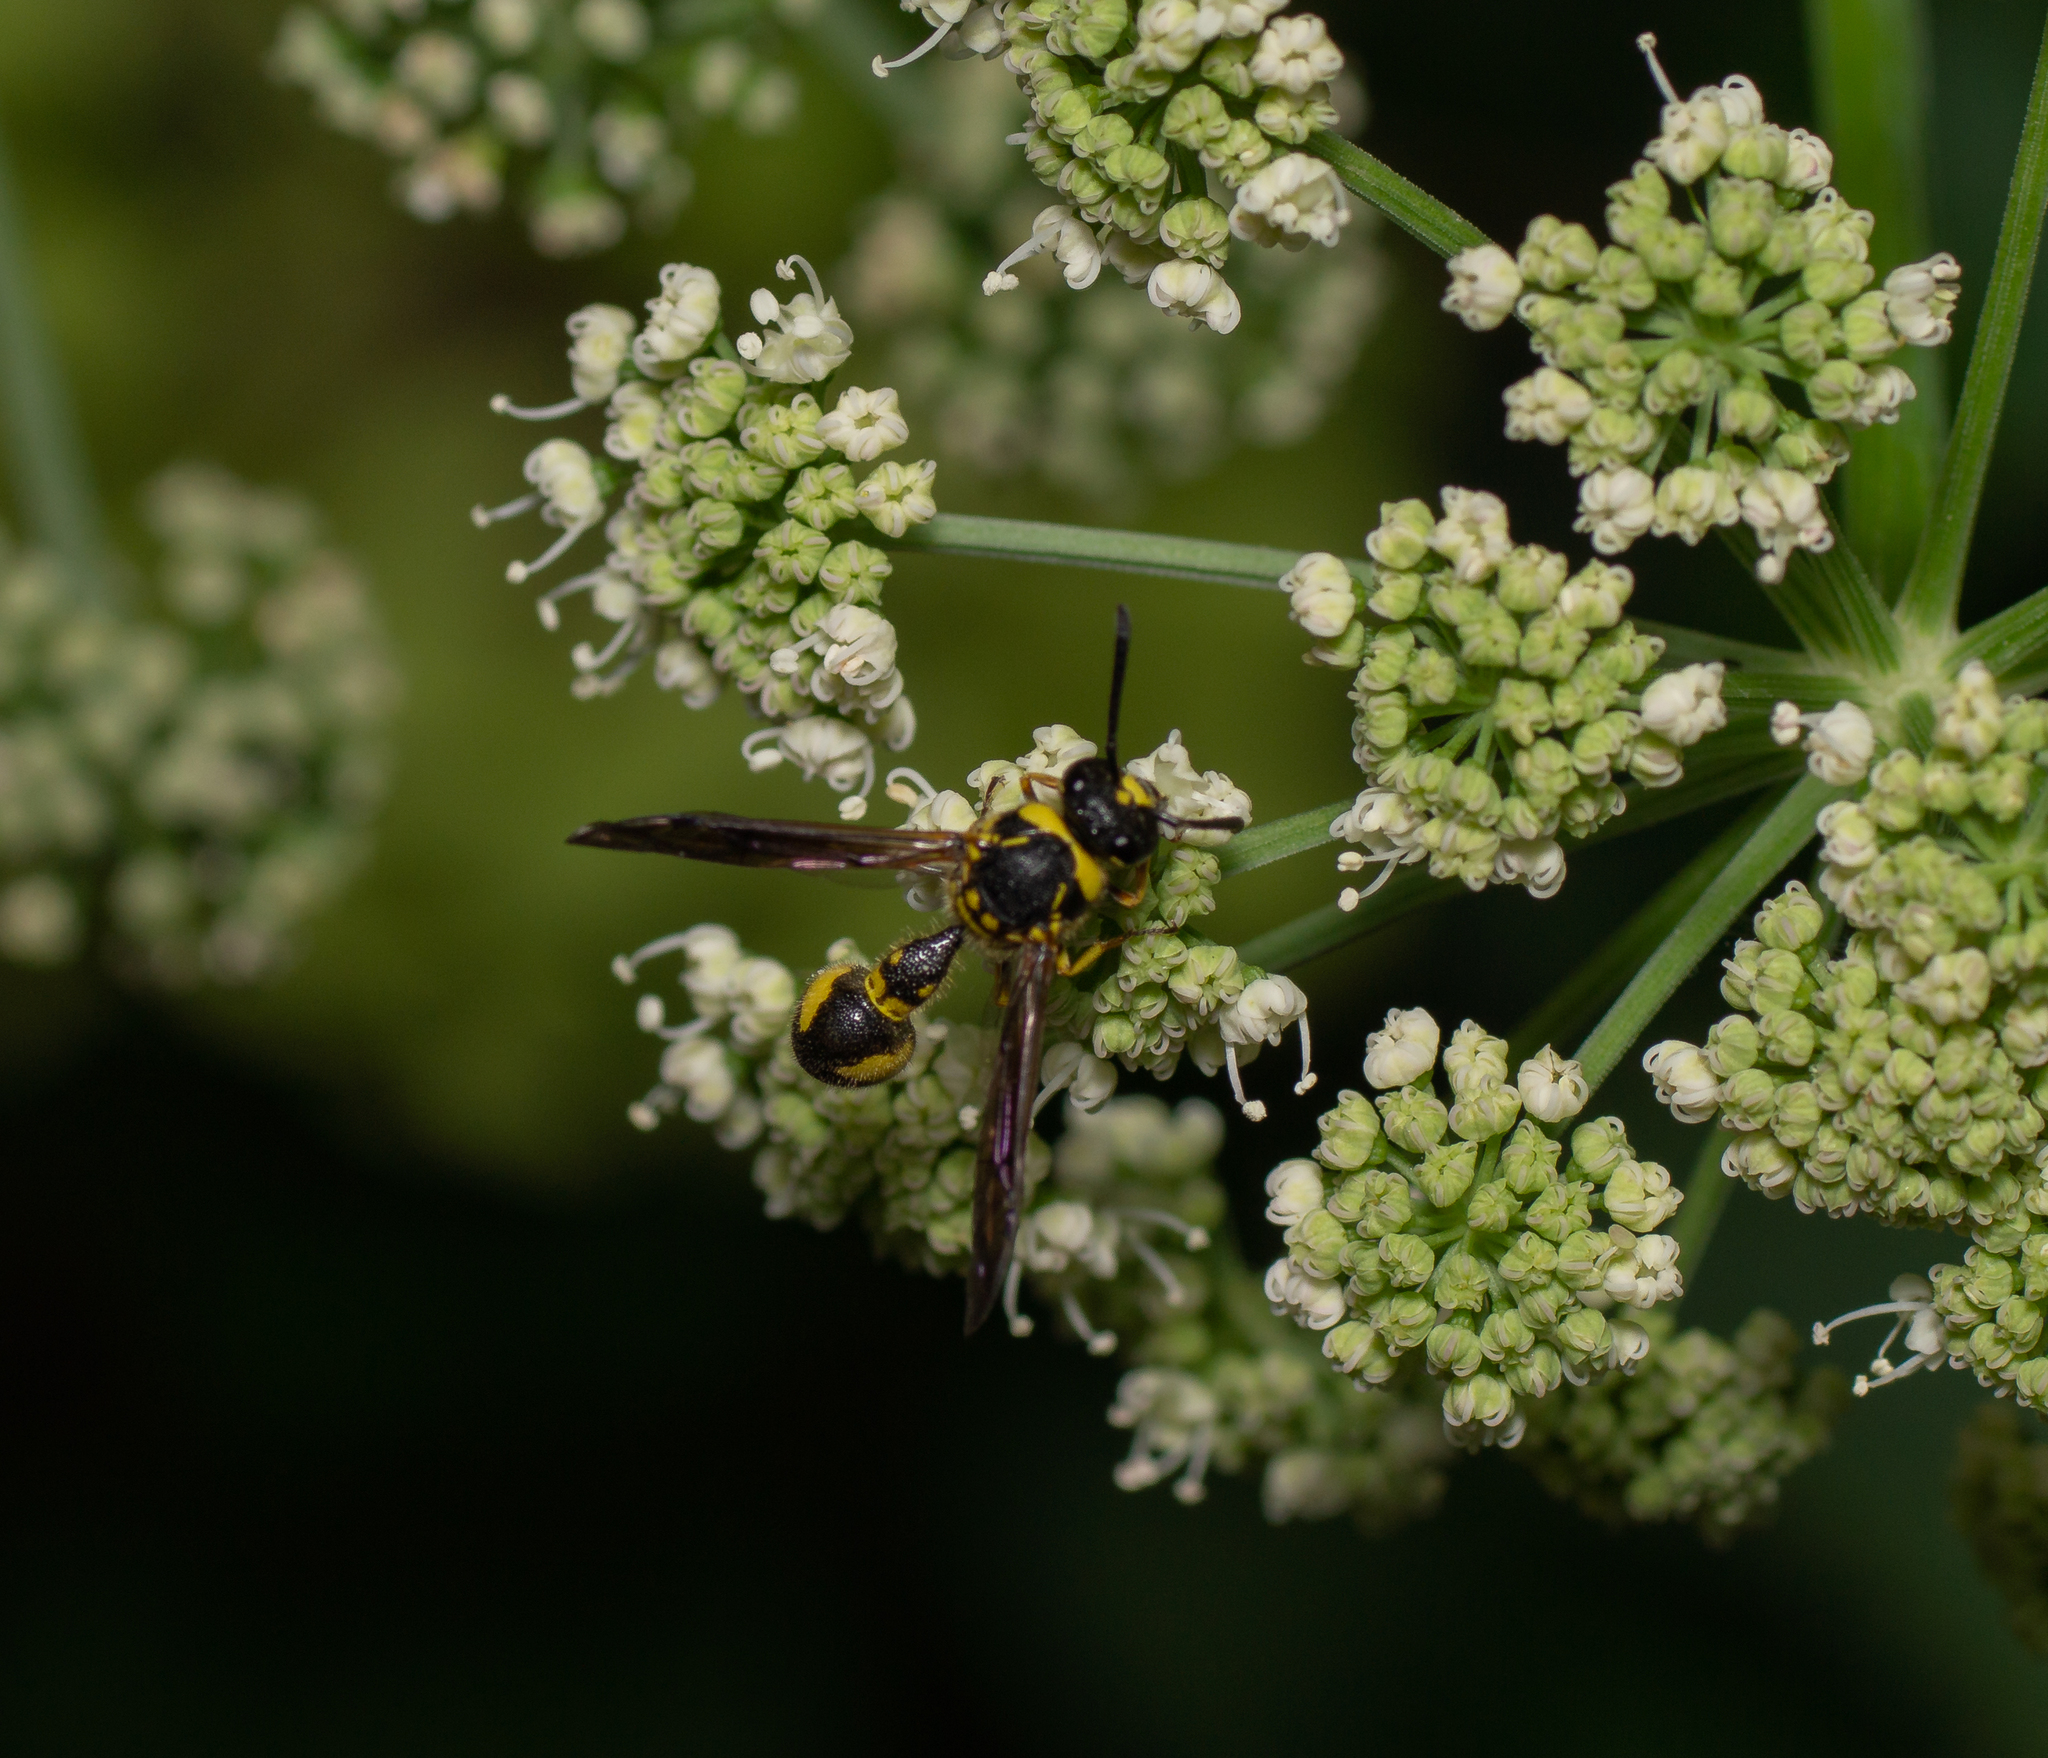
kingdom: Animalia
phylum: Arthropoda
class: Insecta
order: Hymenoptera
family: Vespidae
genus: Eumenes
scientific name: Eumenes mediterraneus
